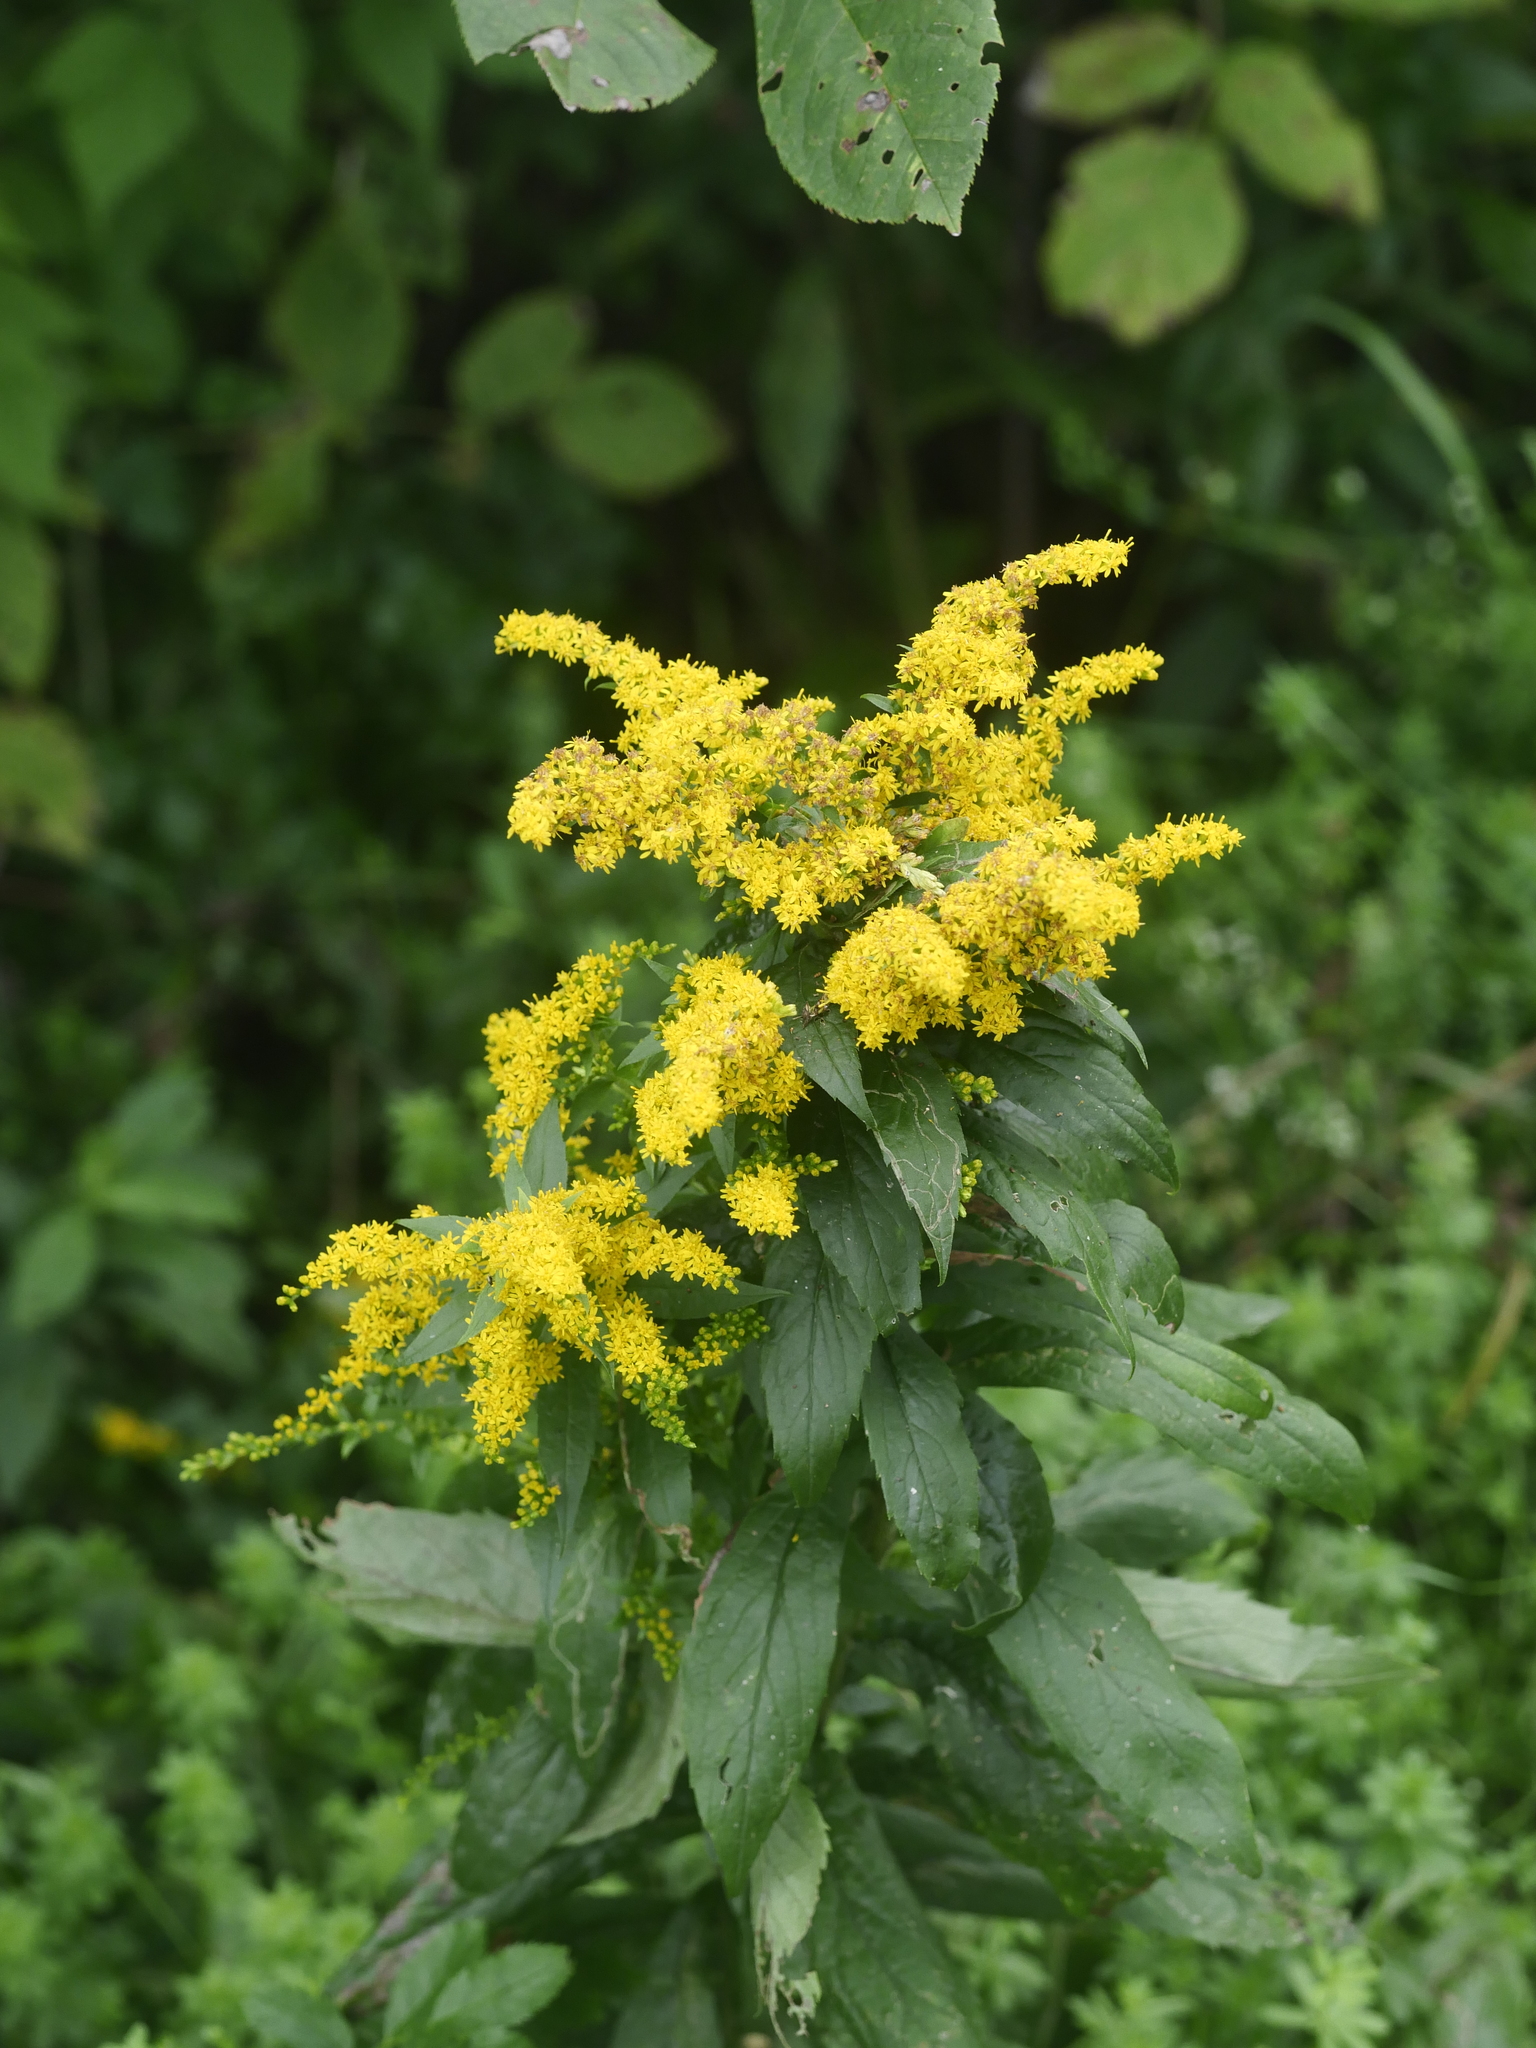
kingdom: Plantae
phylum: Tracheophyta
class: Magnoliopsida
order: Asterales
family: Asteraceae
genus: Solidago
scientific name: Solidago rugosa
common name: Rough-stemmed goldenrod
